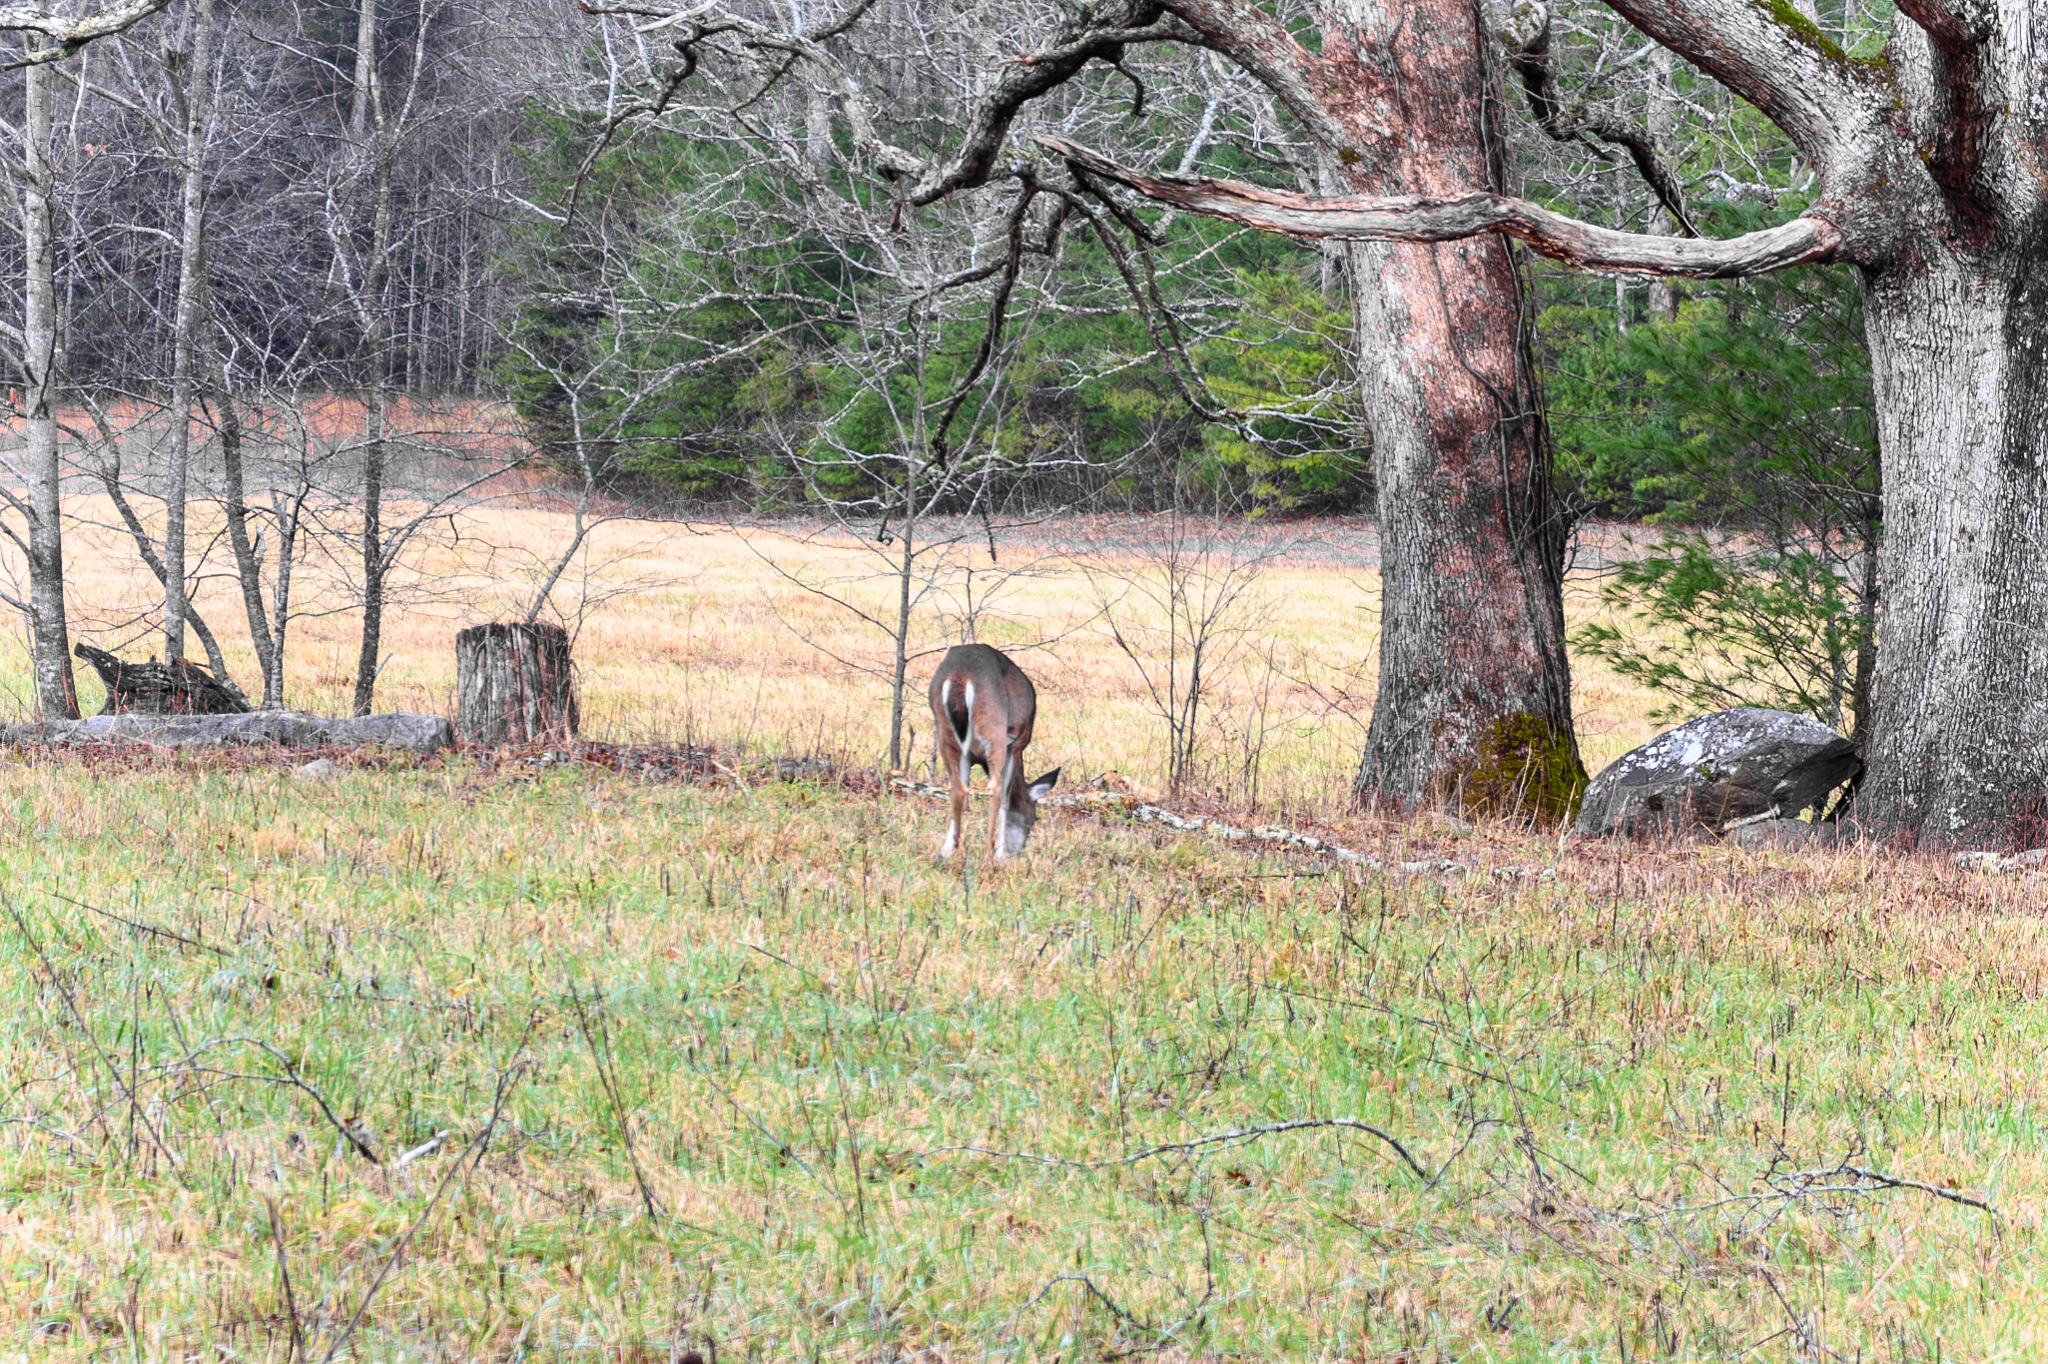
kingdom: Animalia
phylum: Chordata
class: Mammalia
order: Artiodactyla
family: Cervidae
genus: Odocoileus
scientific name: Odocoileus virginianus
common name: White-tailed deer
